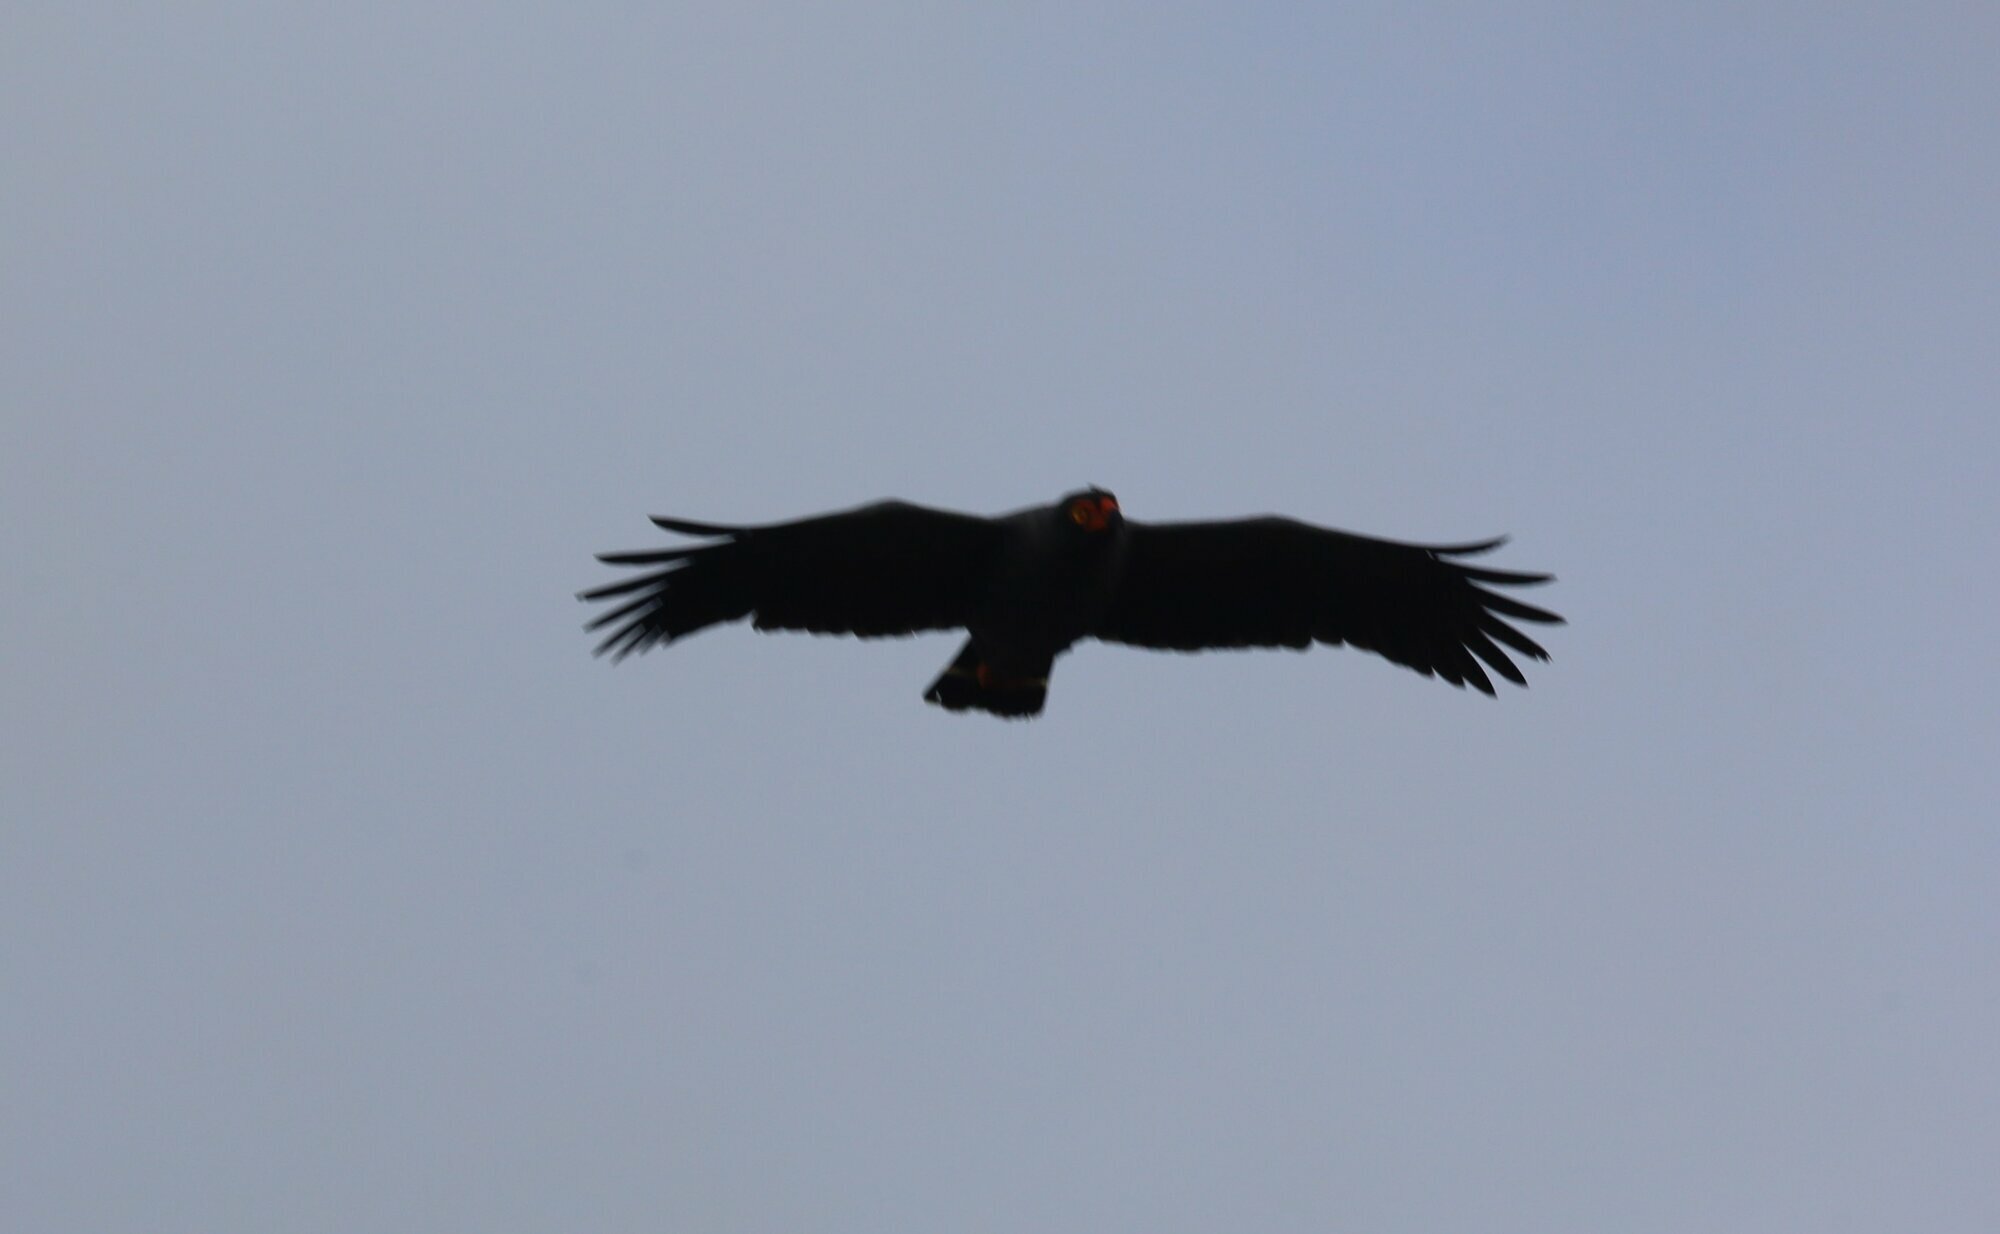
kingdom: Animalia
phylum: Chordata
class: Aves
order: Accipitriformes
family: Accipitridae
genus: Leucopternis
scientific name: Leucopternis schistaceus
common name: Slate-colored hawk
